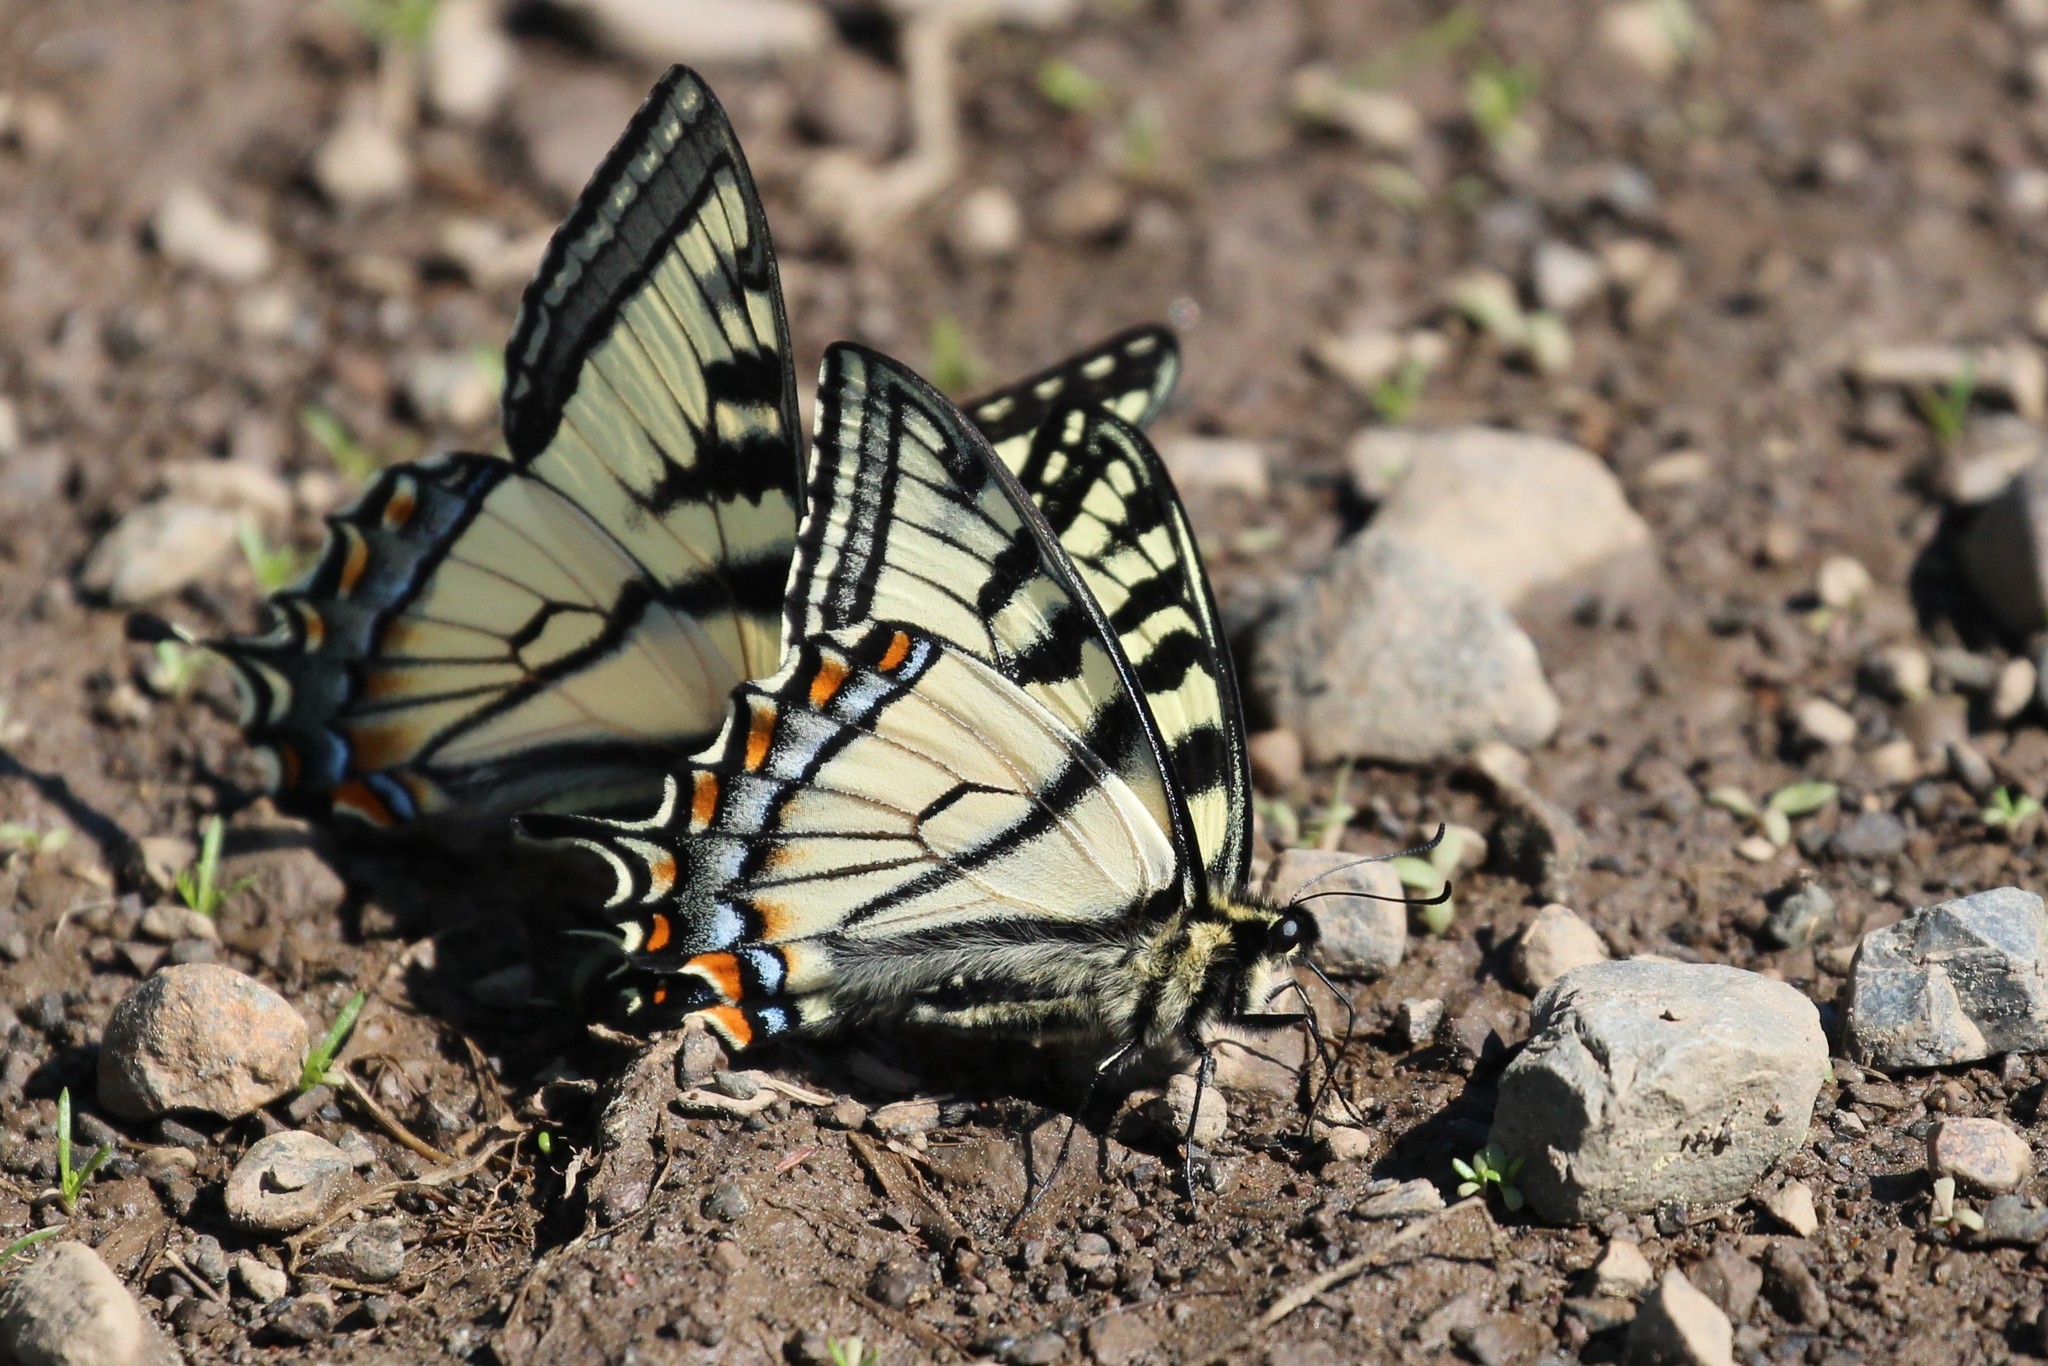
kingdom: Animalia
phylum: Arthropoda
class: Insecta
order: Lepidoptera
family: Papilionidae
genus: Papilio
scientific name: Papilio canadensis
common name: Canadian tiger swallowtail
